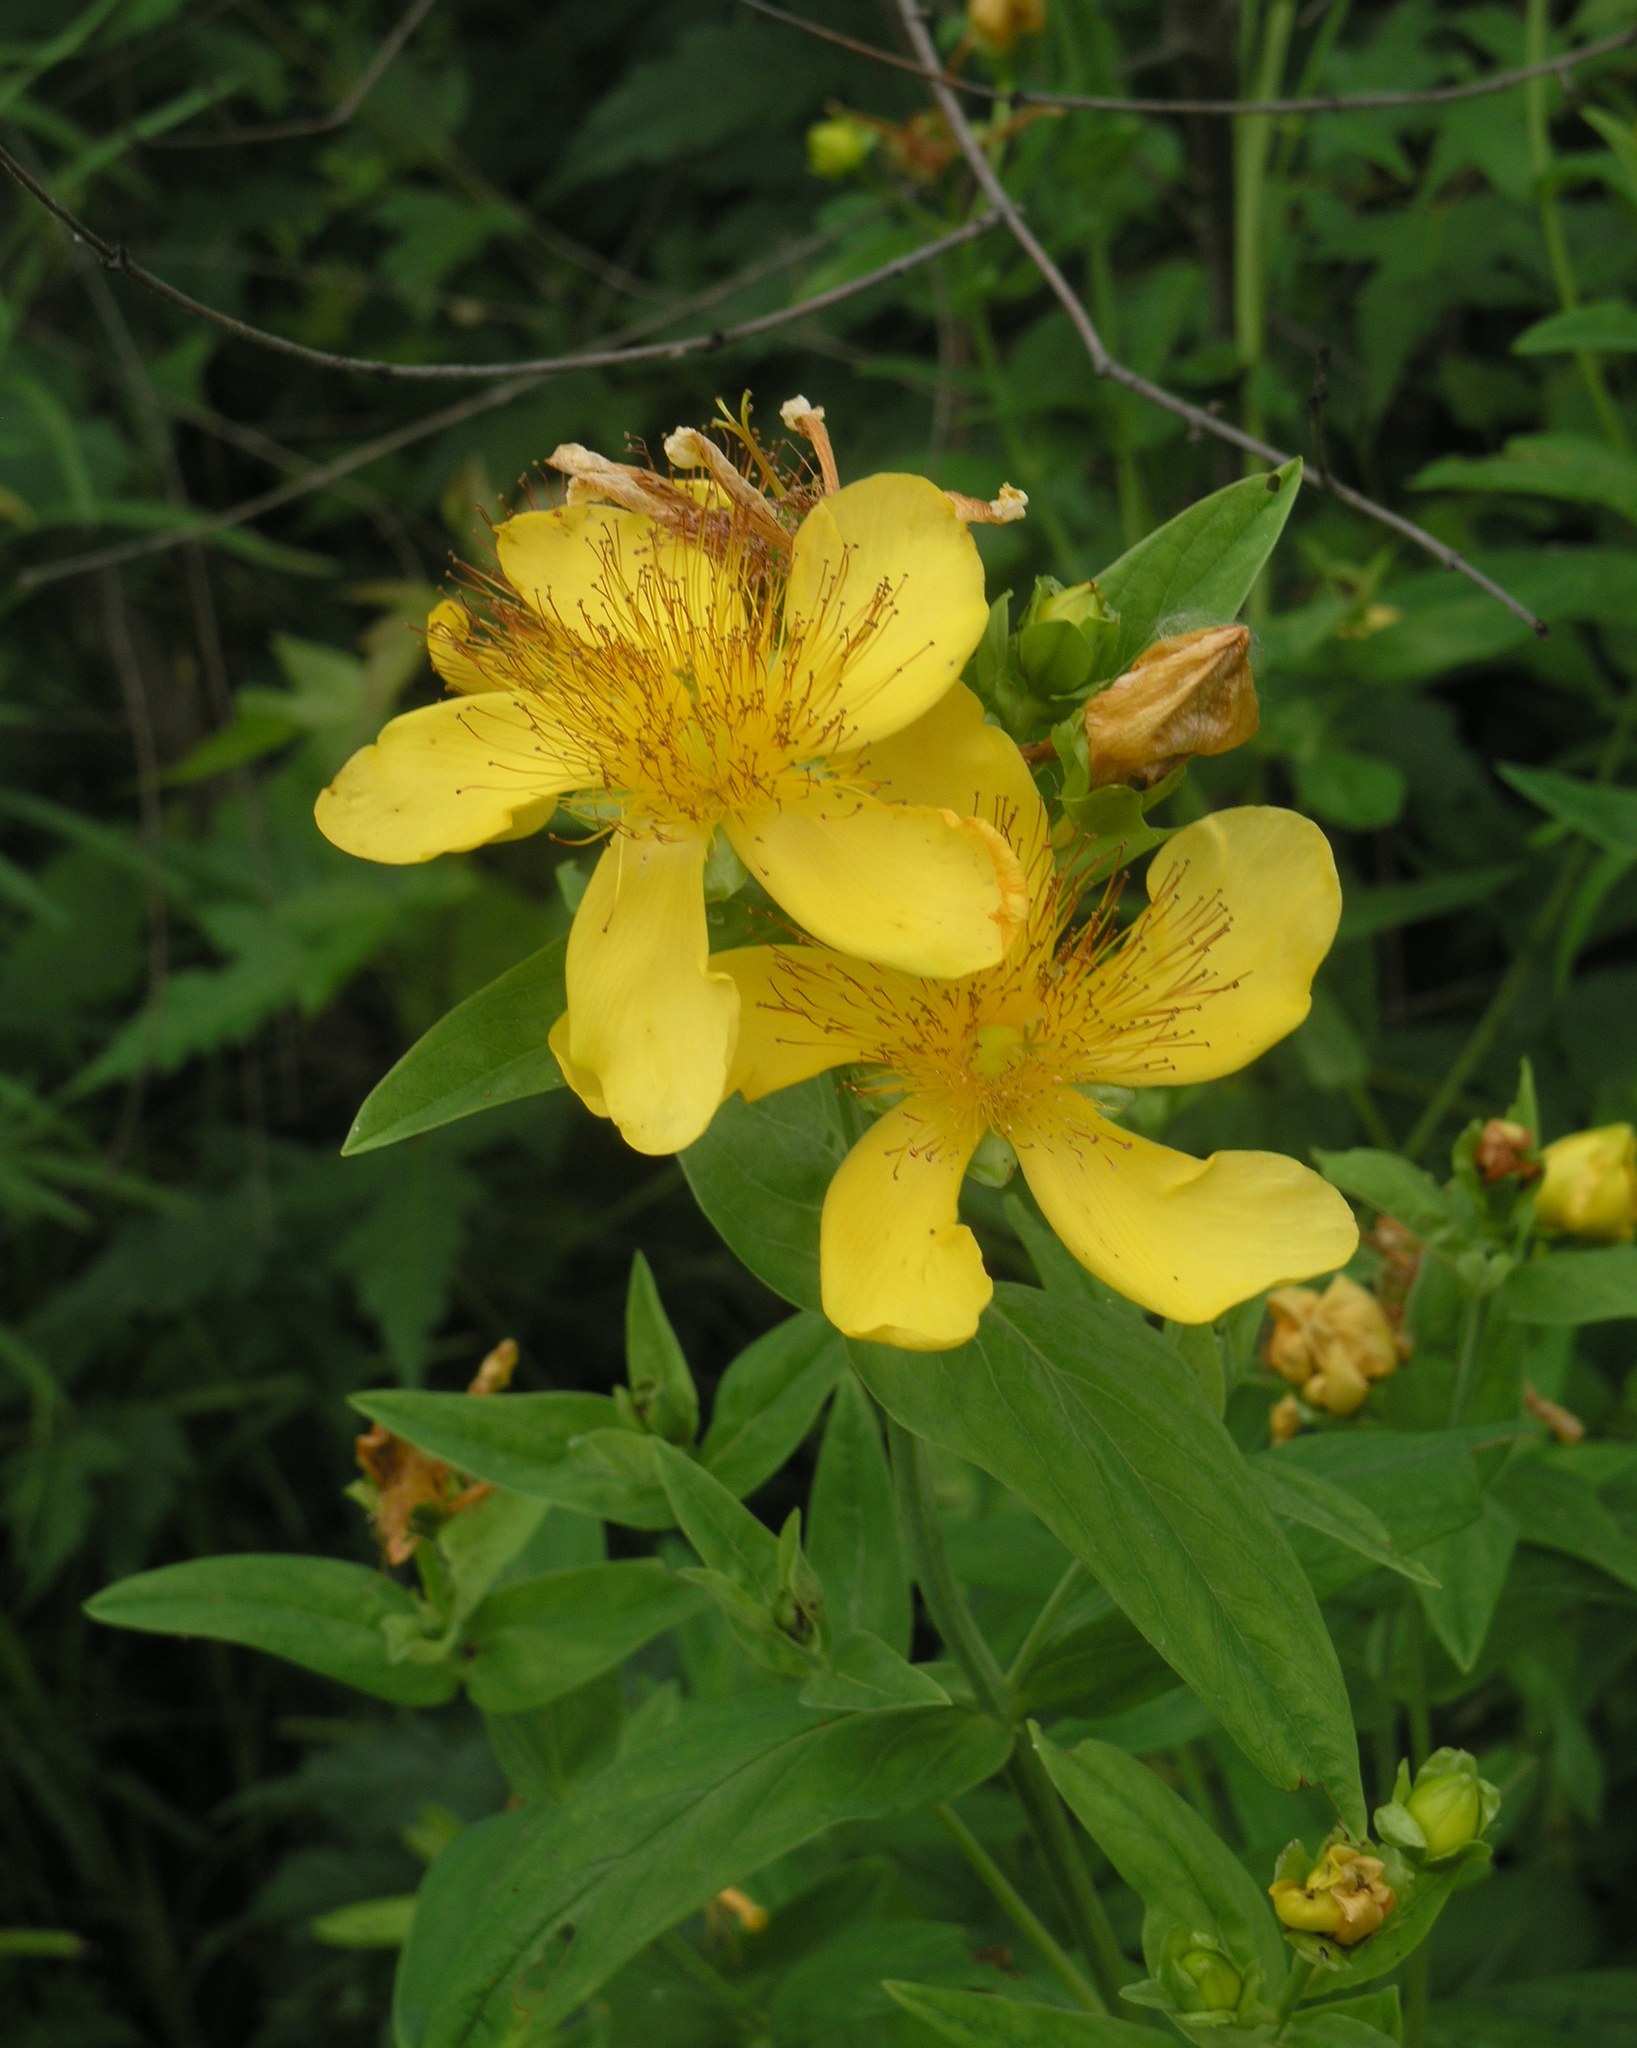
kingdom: Plantae
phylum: Tracheophyta
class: Magnoliopsida
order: Malpighiales
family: Hypericaceae
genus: Hypericum
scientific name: Hypericum ascyron
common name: Giant st. john's-wort
